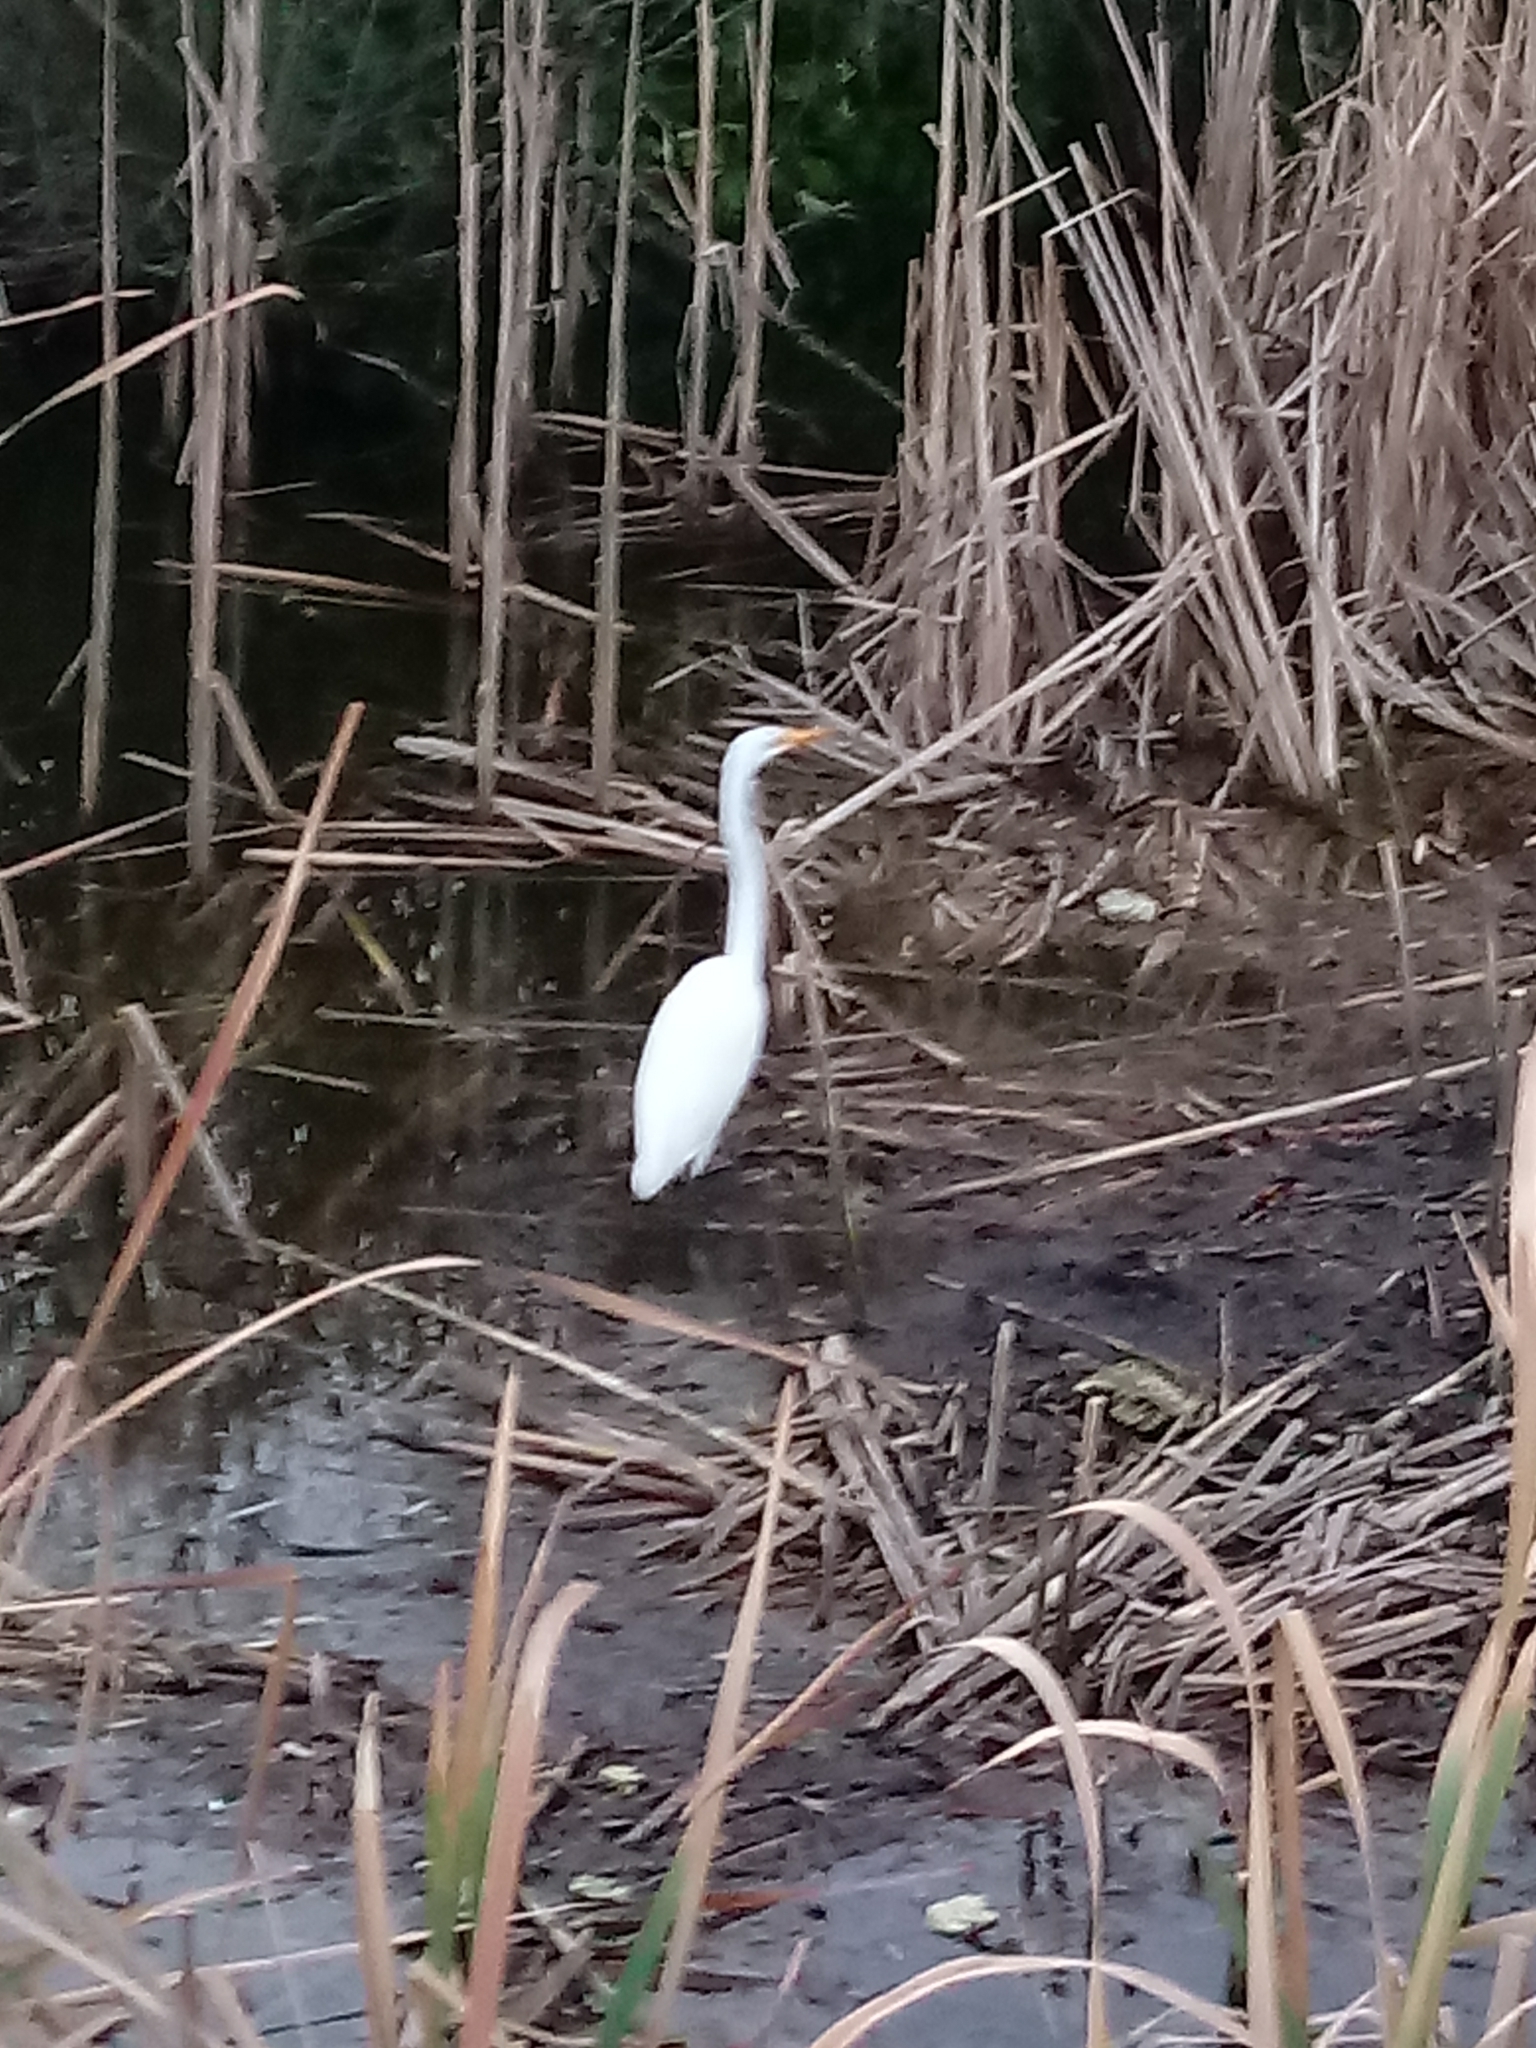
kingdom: Animalia
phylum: Chordata
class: Aves
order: Pelecaniformes
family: Ardeidae
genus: Ardea
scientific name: Ardea alba
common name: Great egret
